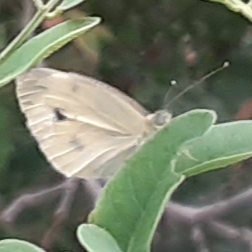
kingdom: Animalia
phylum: Arthropoda
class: Insecta
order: Lepidoptera
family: Pieridae
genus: Pieris
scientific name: Pieris rapae
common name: Small white
